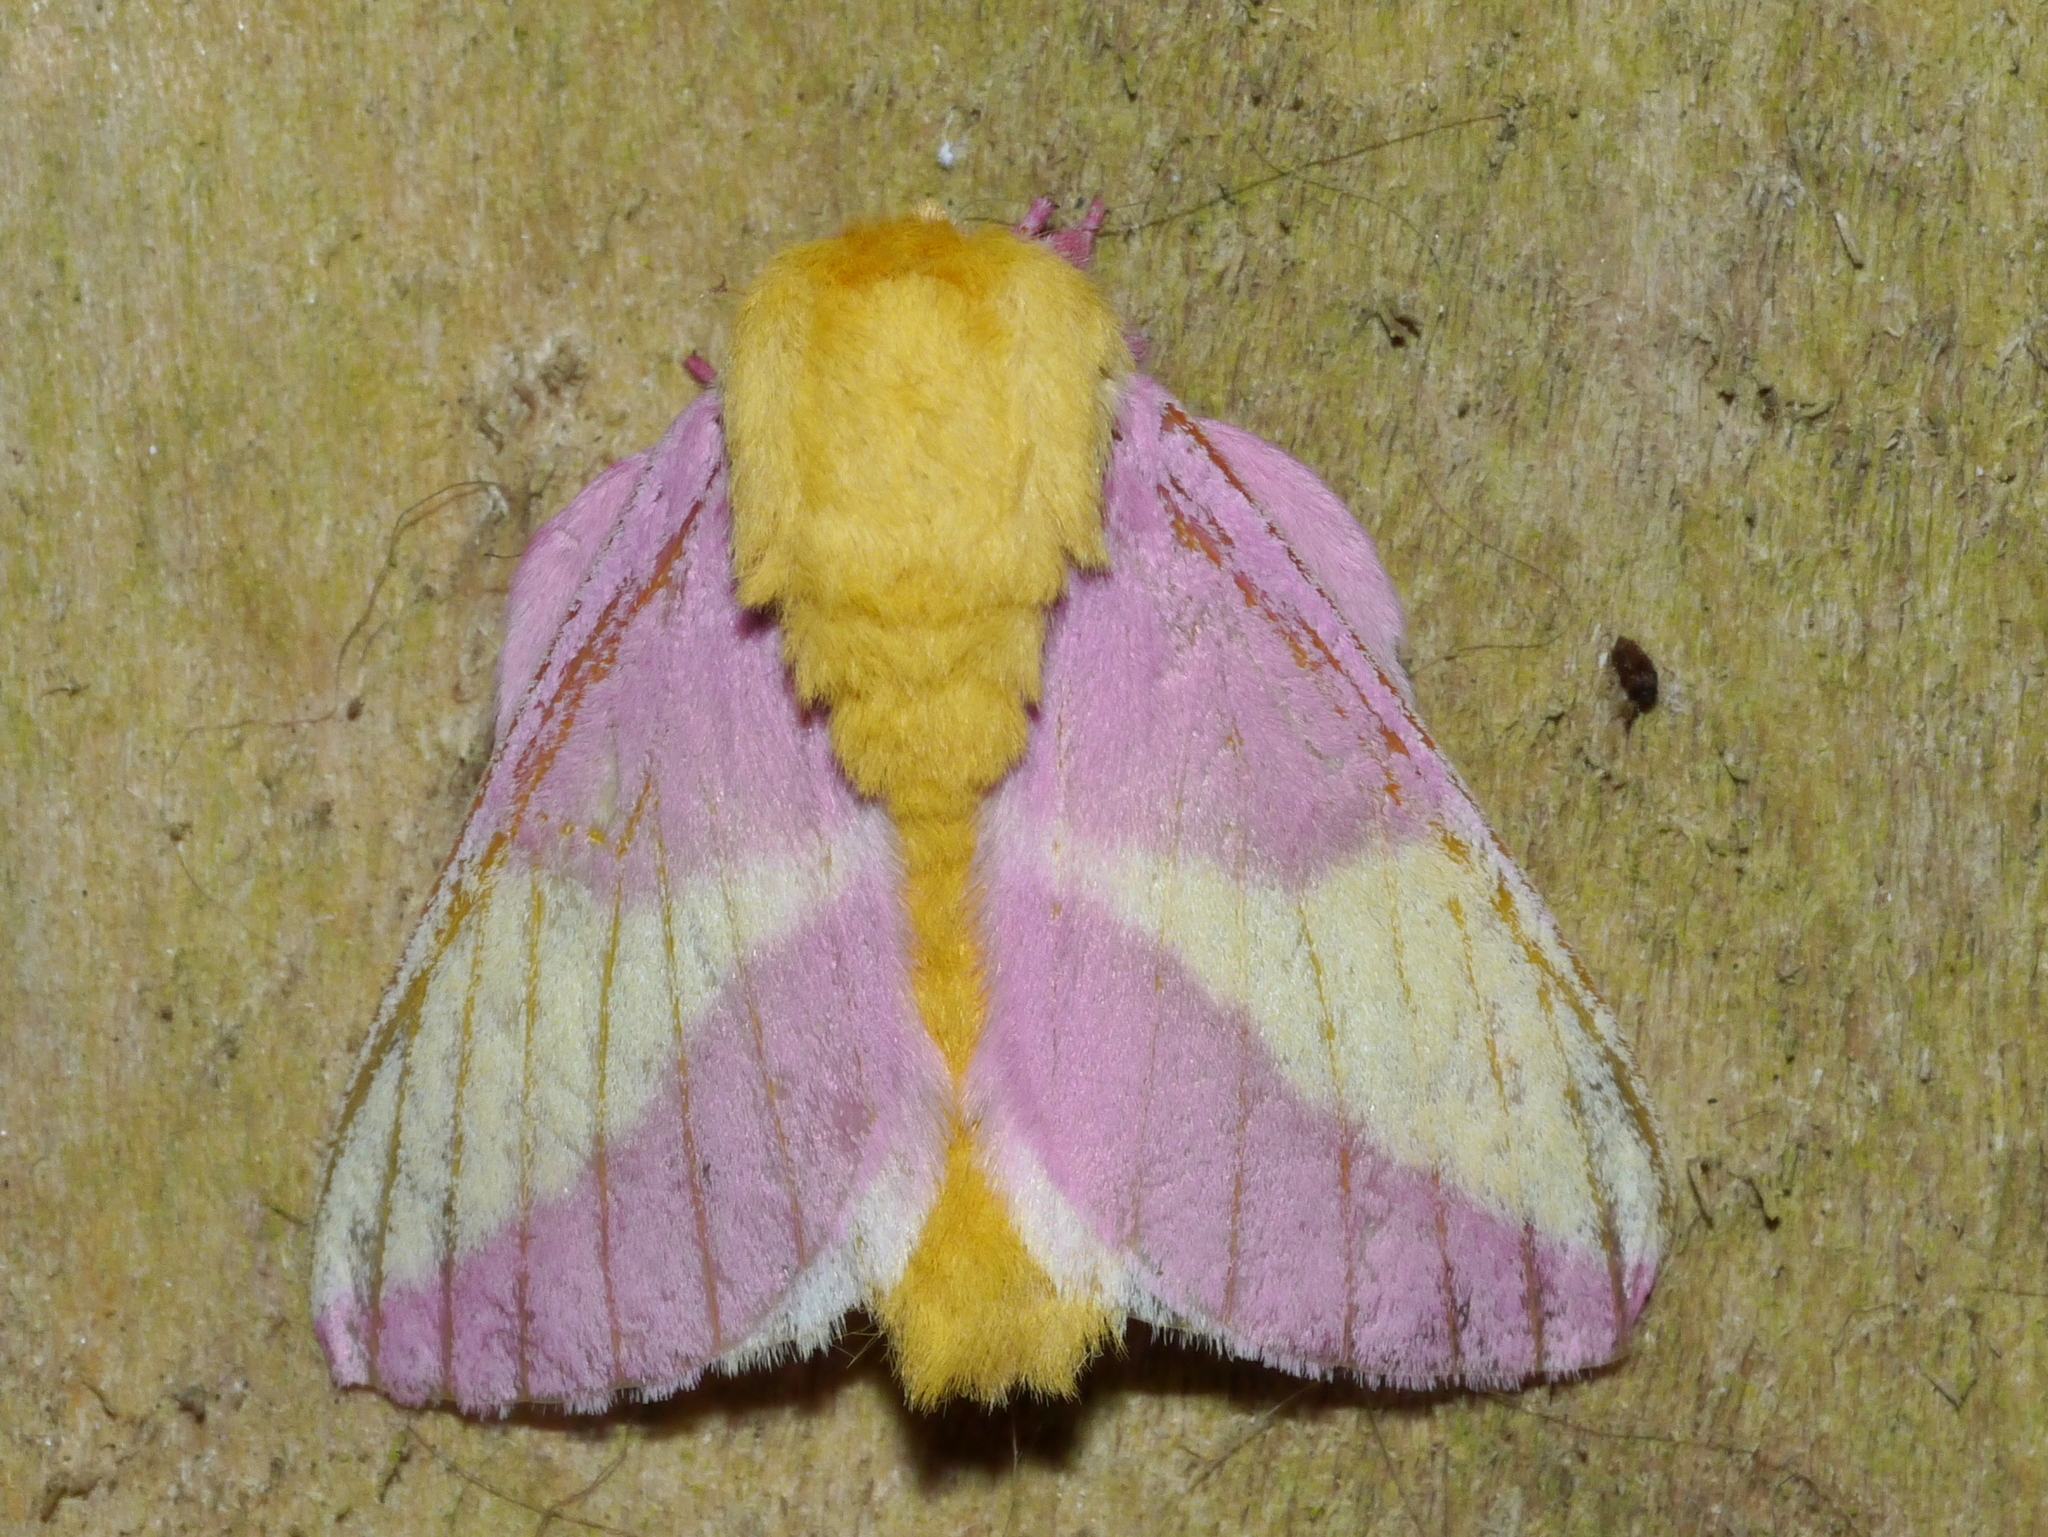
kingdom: Animalia
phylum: Arthropoda
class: Insecta
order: Lepidoptera
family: Saturniidae
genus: Dryocampa
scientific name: Dryocampa rubicunda
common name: Rosy maple moth
